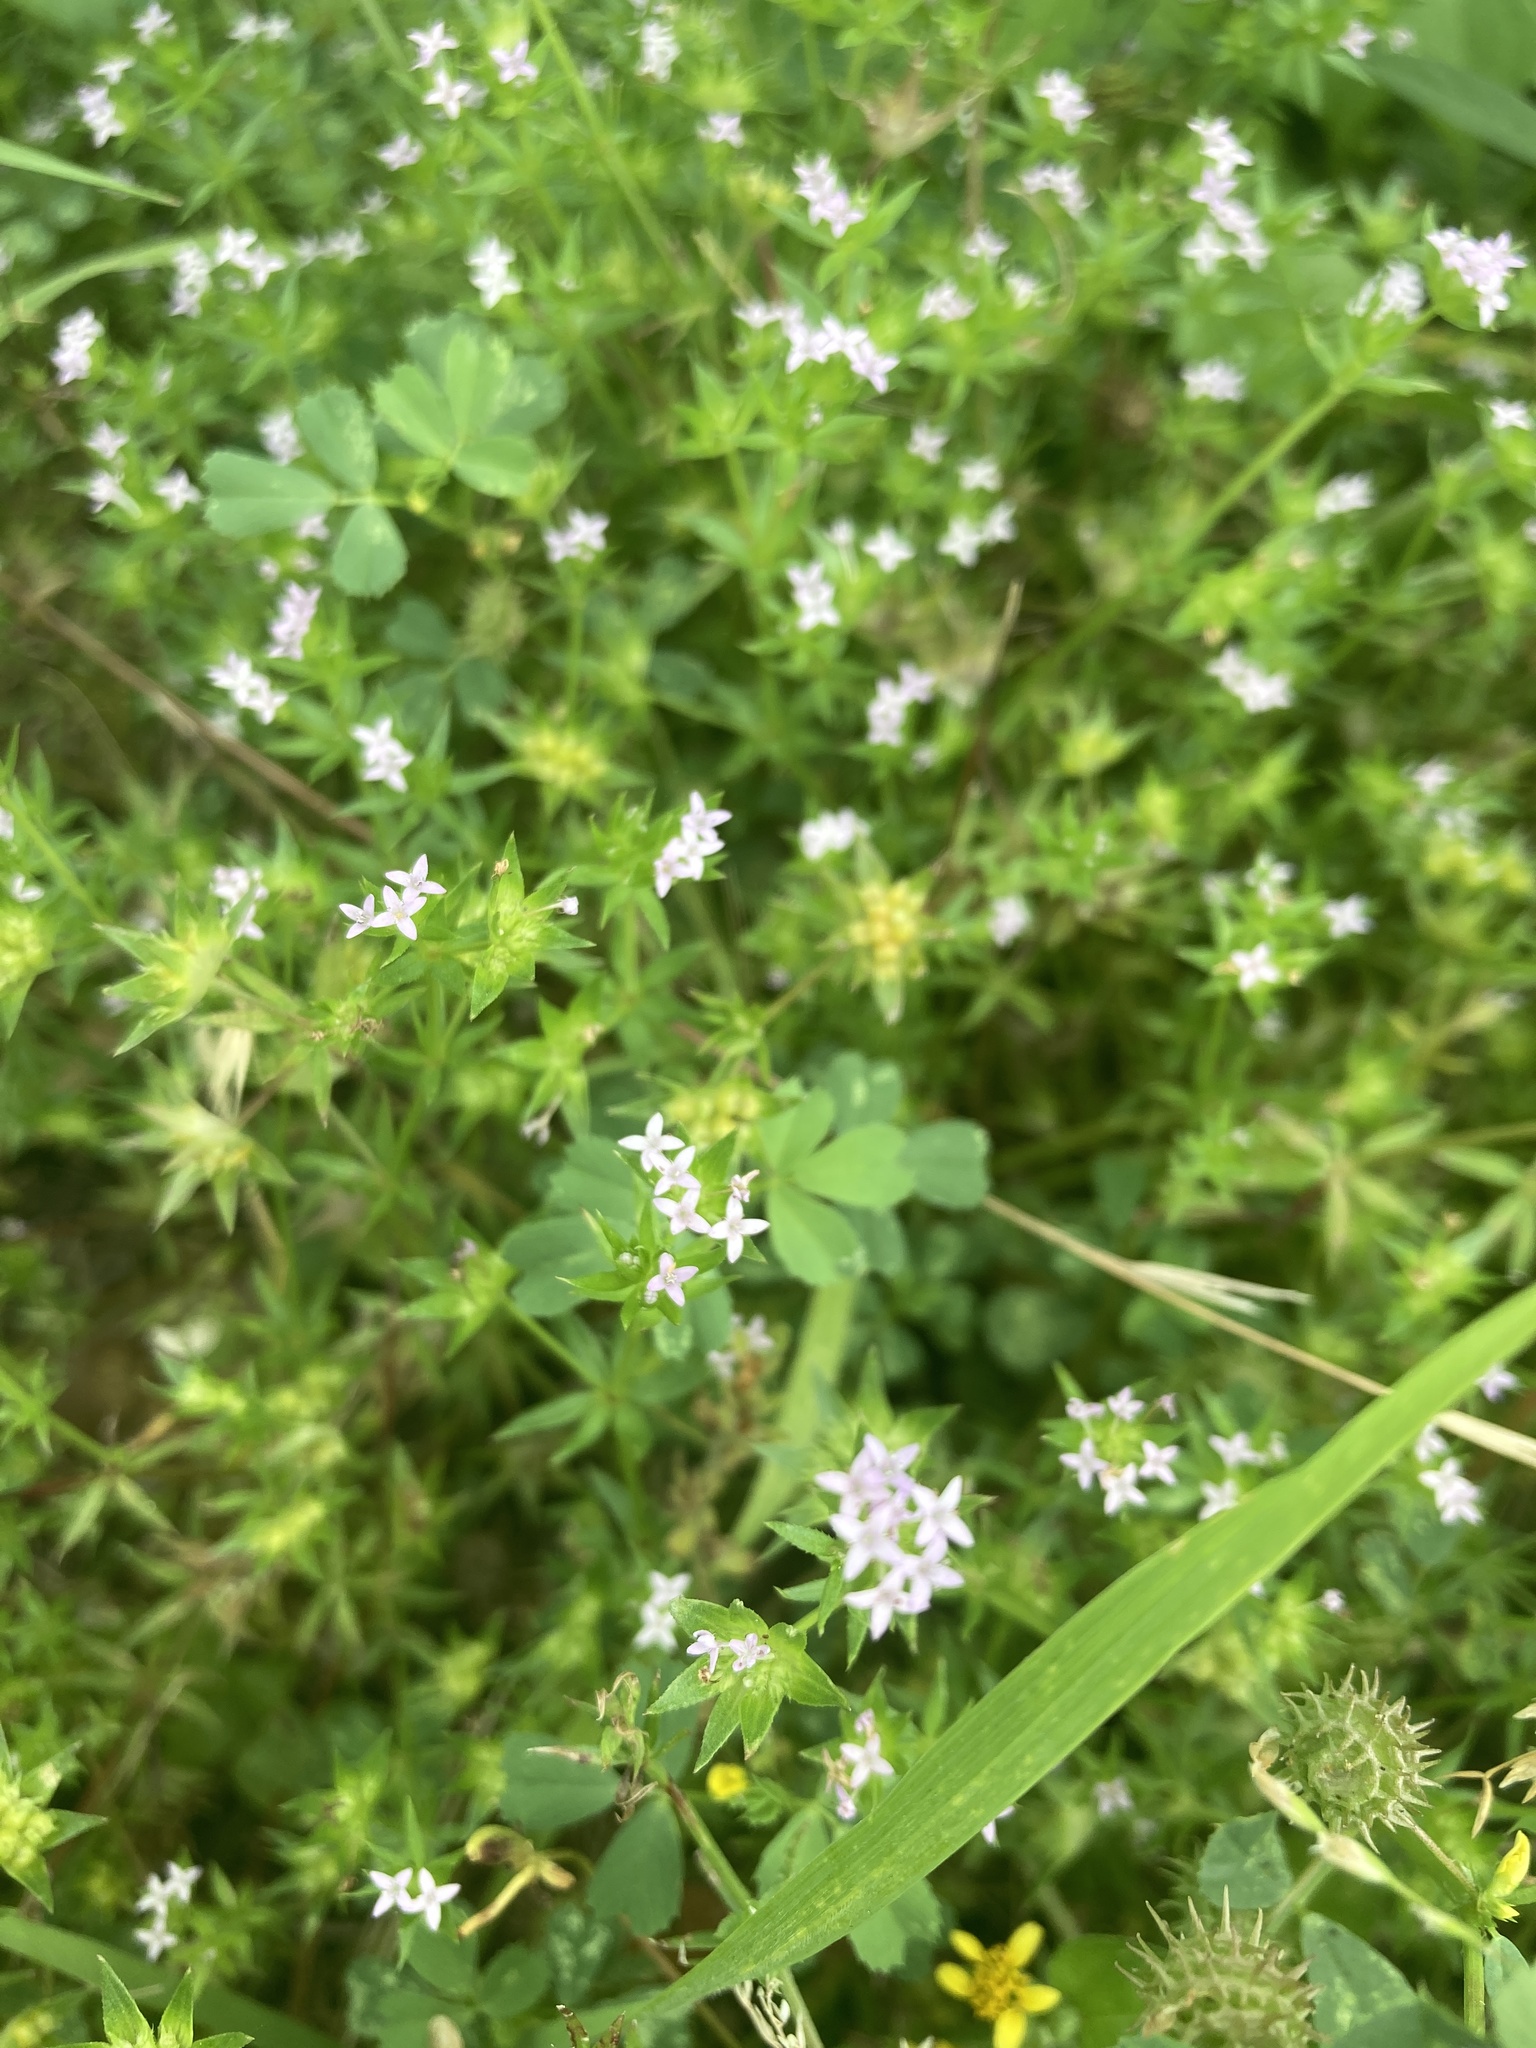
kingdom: Plantae
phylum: Tracheophyta
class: Magnoliopsida
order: Gentianales
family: Rubiaceae
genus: Sherardia
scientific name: Sherardia arvensis
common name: Field madder
